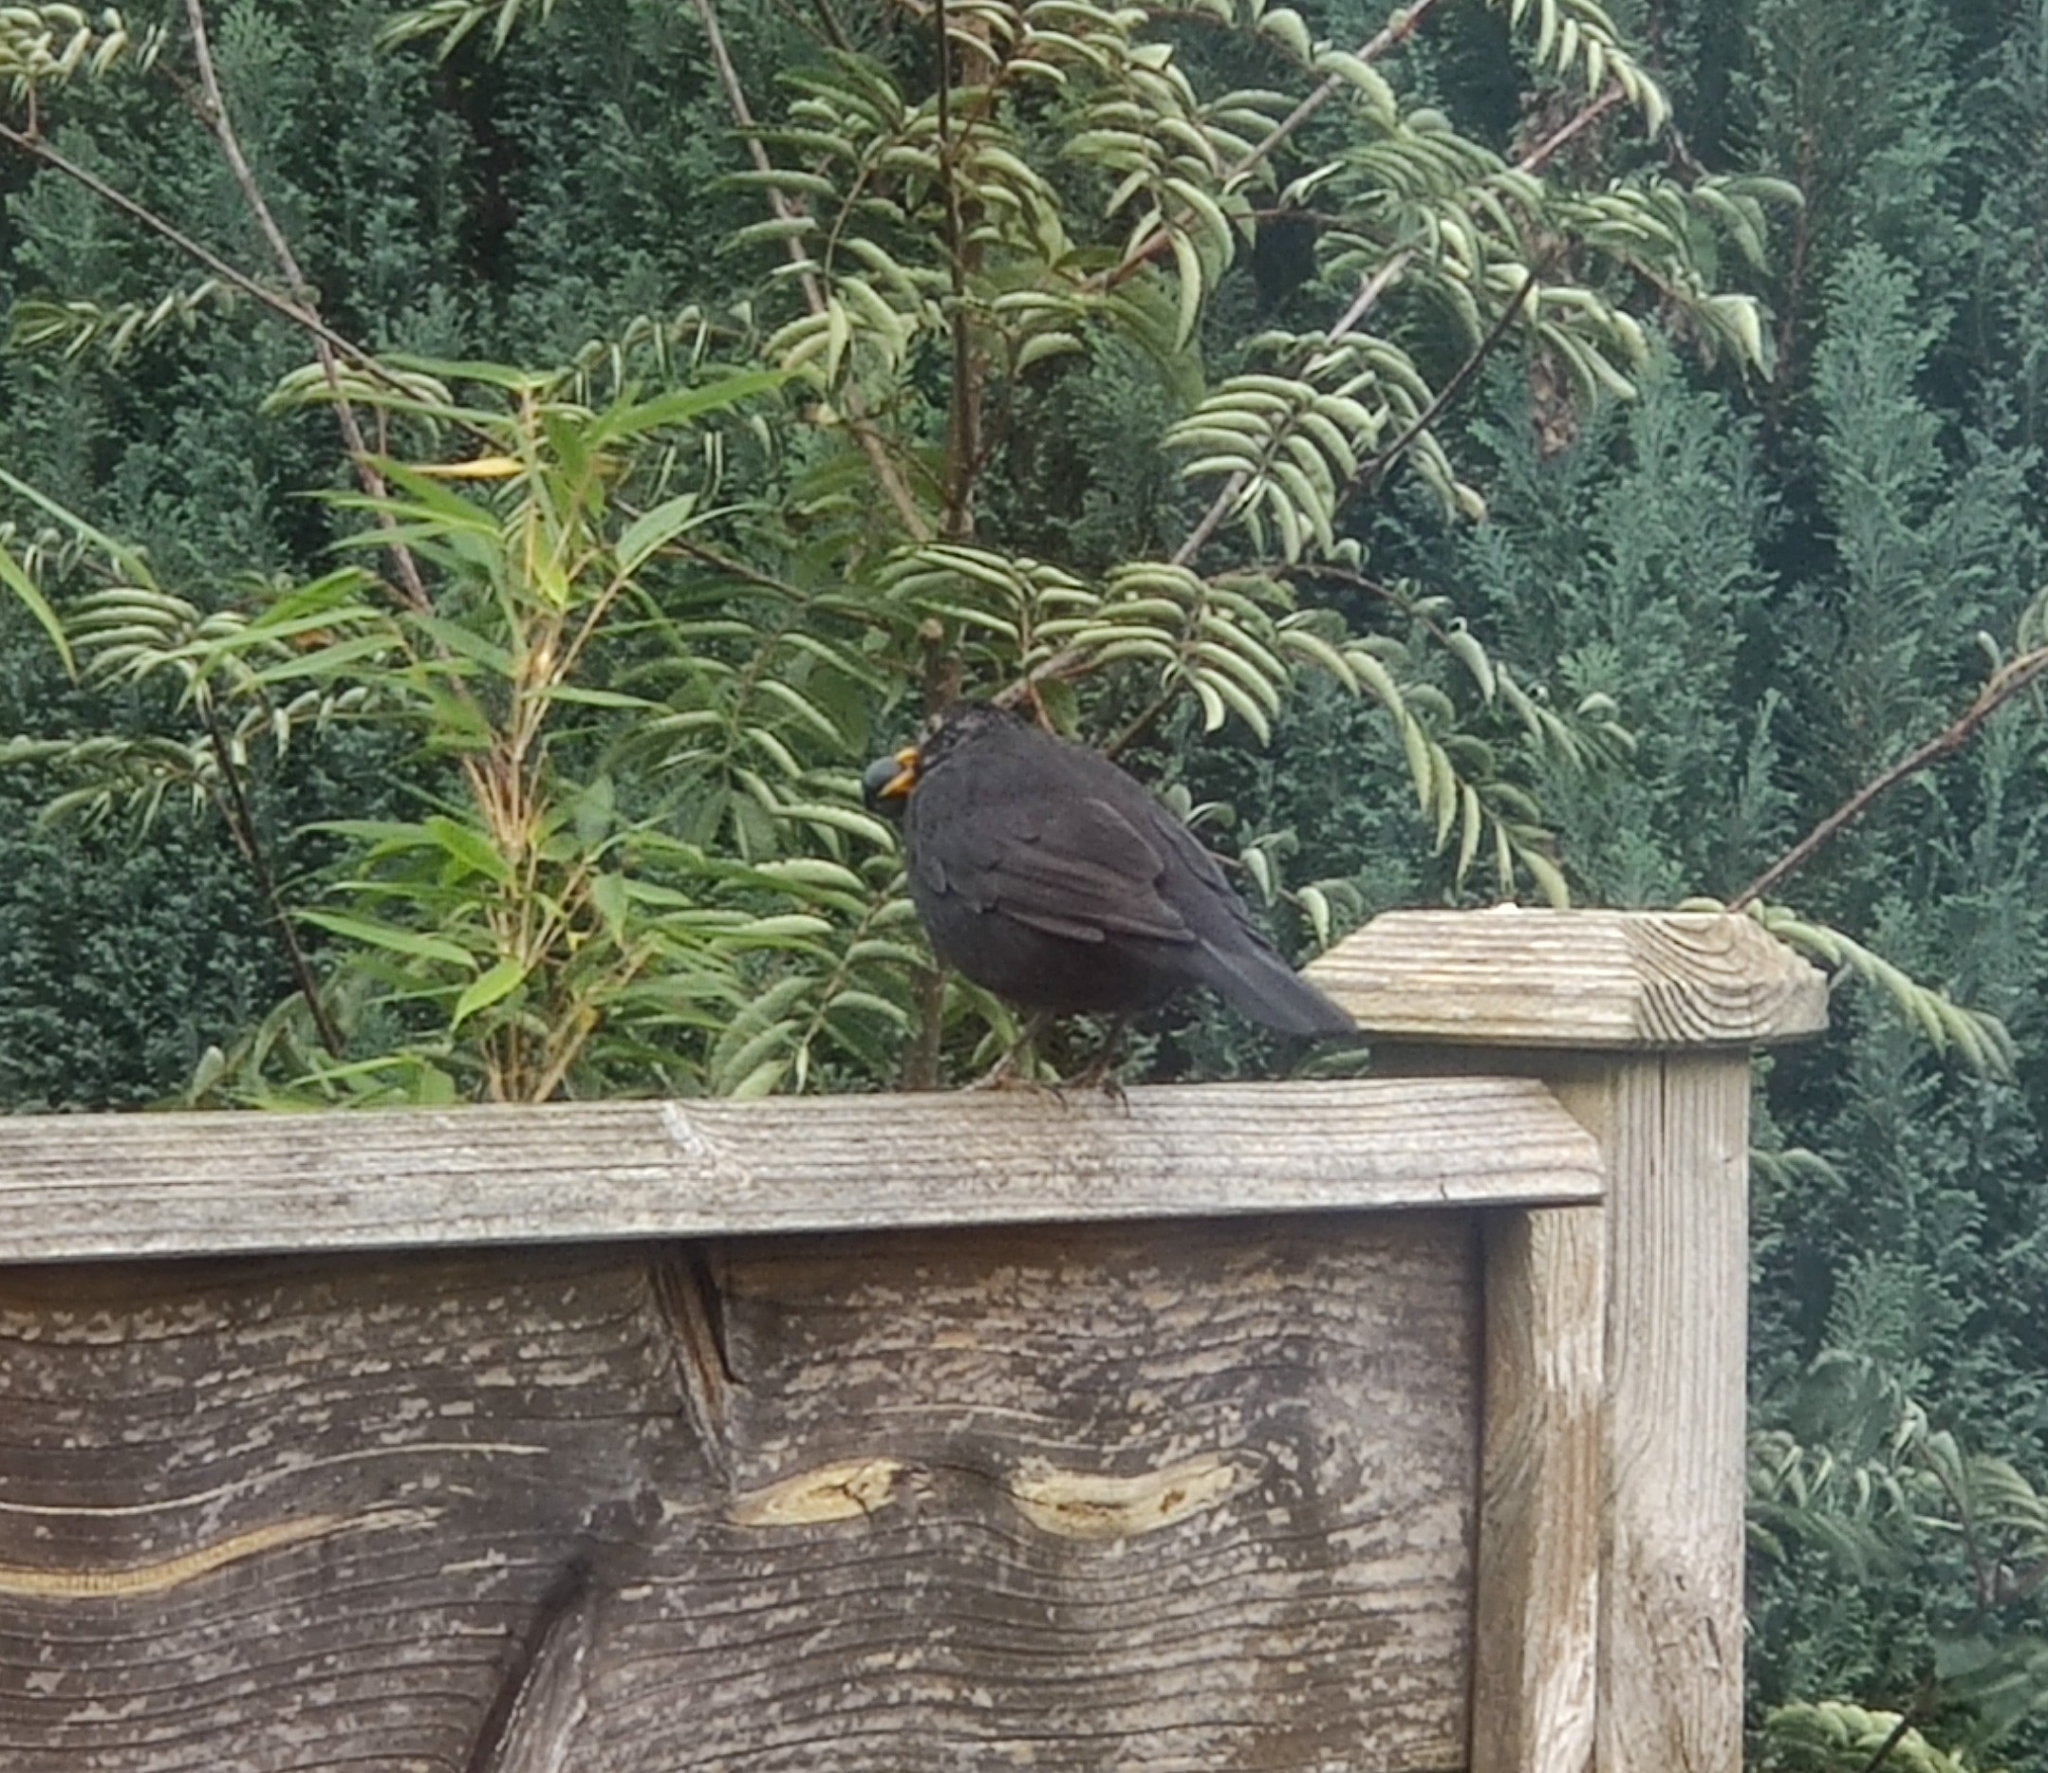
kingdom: Animalia
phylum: Chordata
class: Aves
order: Passeriformes
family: Turdidae
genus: Turdus
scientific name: Turdus merula
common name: Common blackbird
